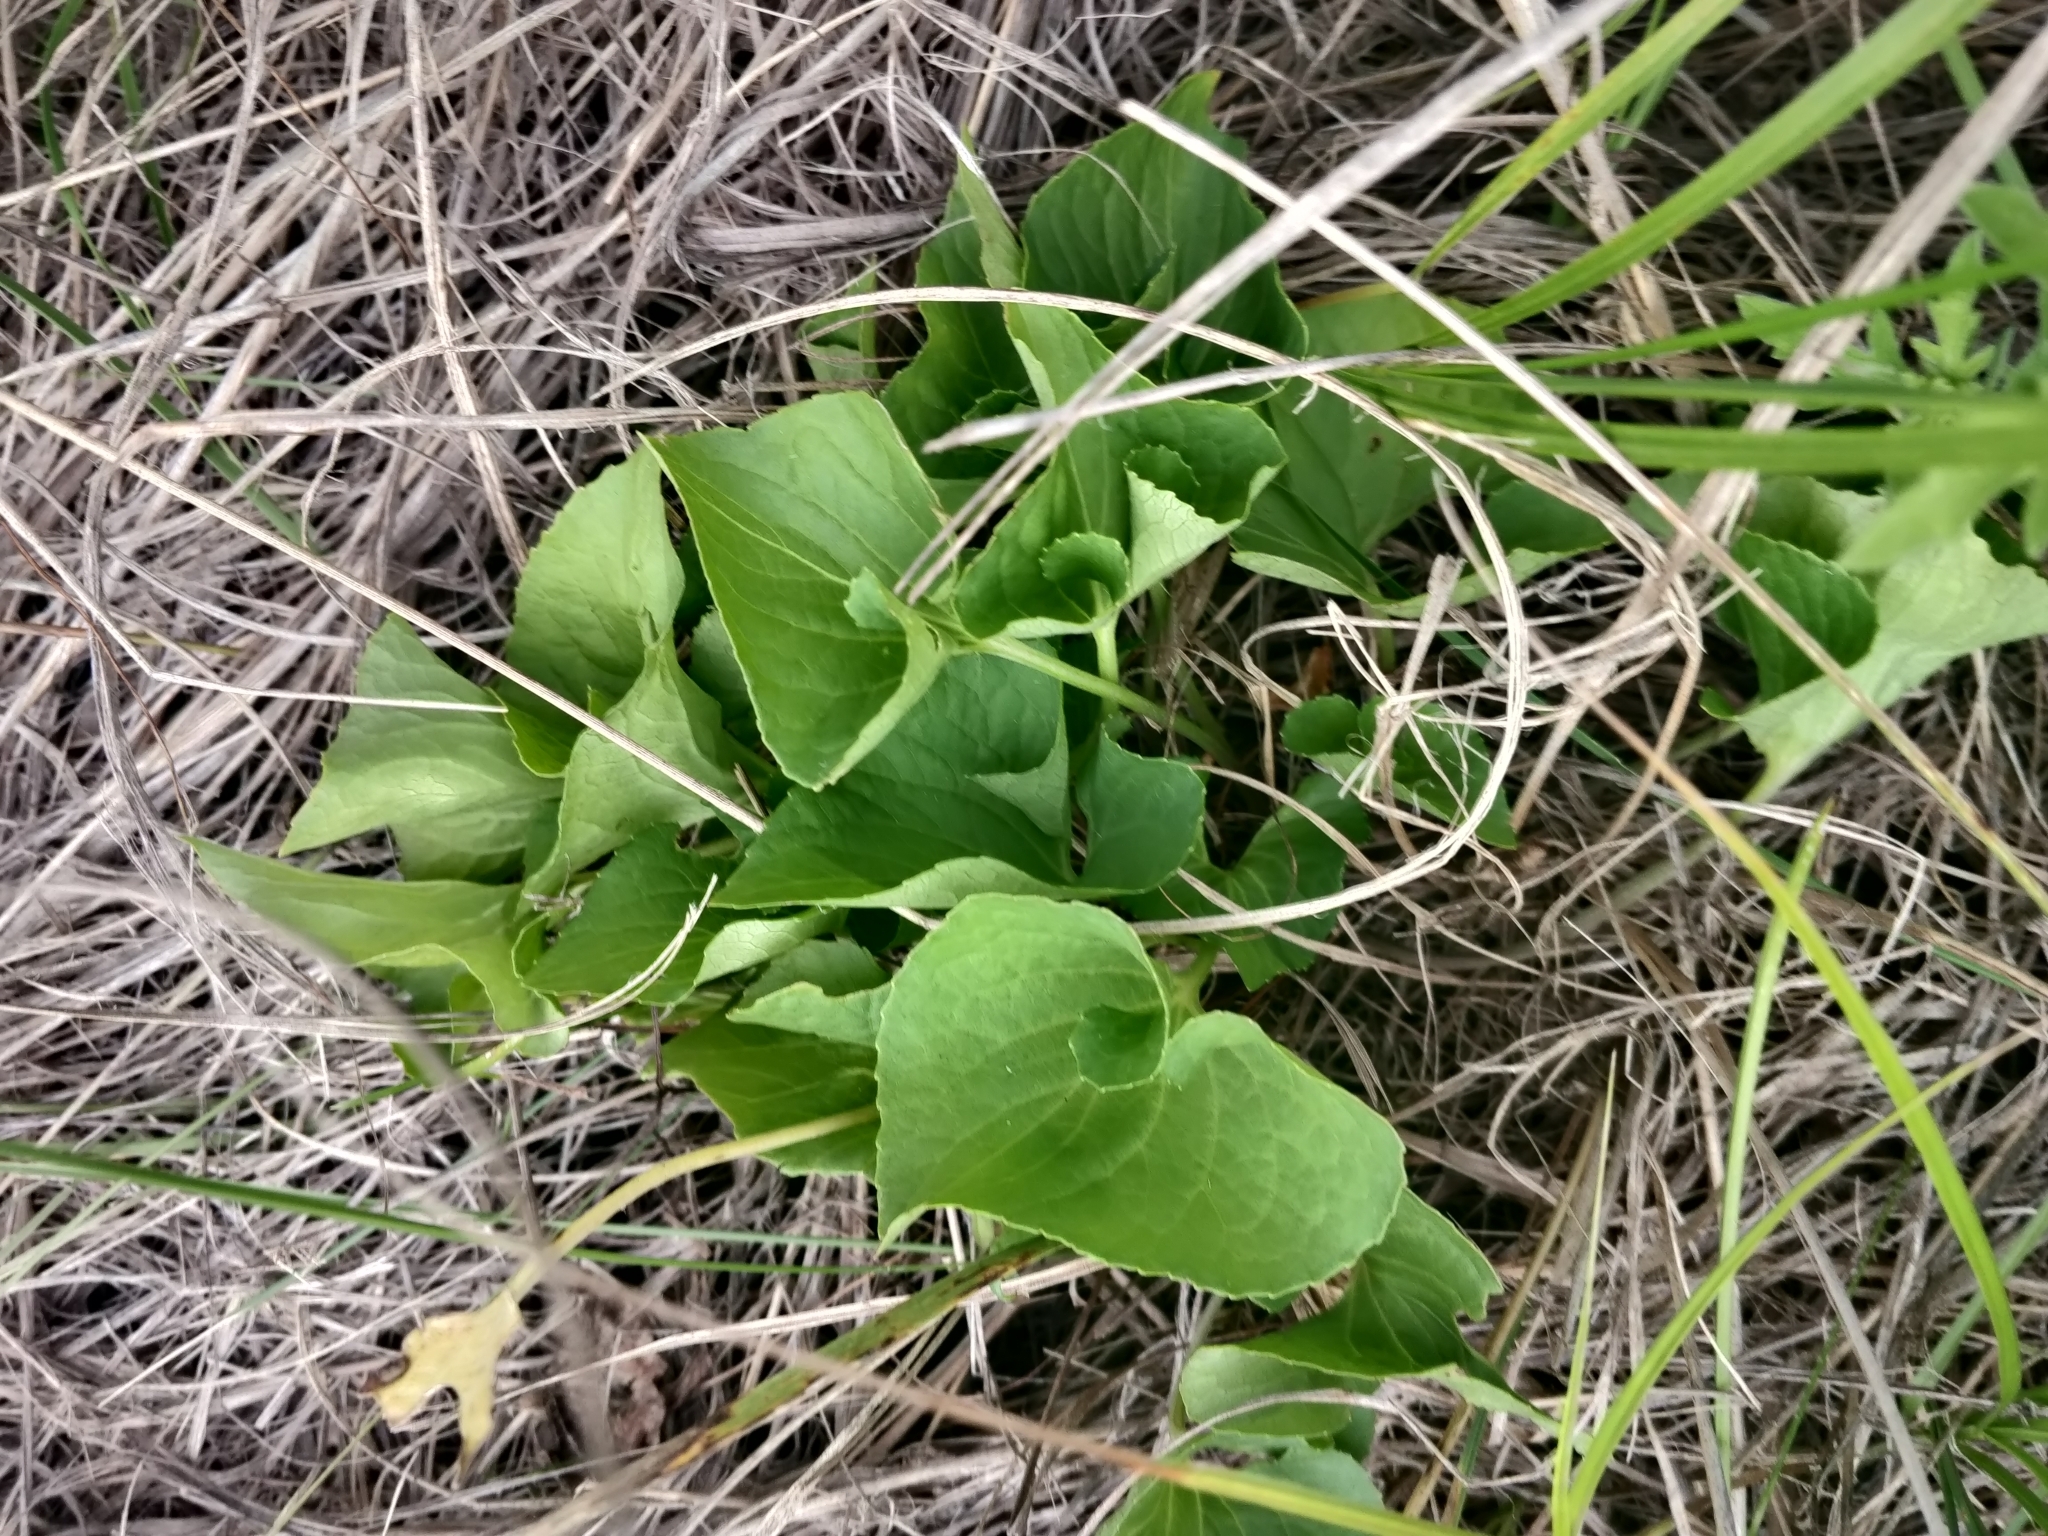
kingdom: Plantae
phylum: Tracheophyta
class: Magnoliopsida
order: Malpighiales
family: Violaceae
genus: Viola
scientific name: Viola sororia
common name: Dooryard violet
